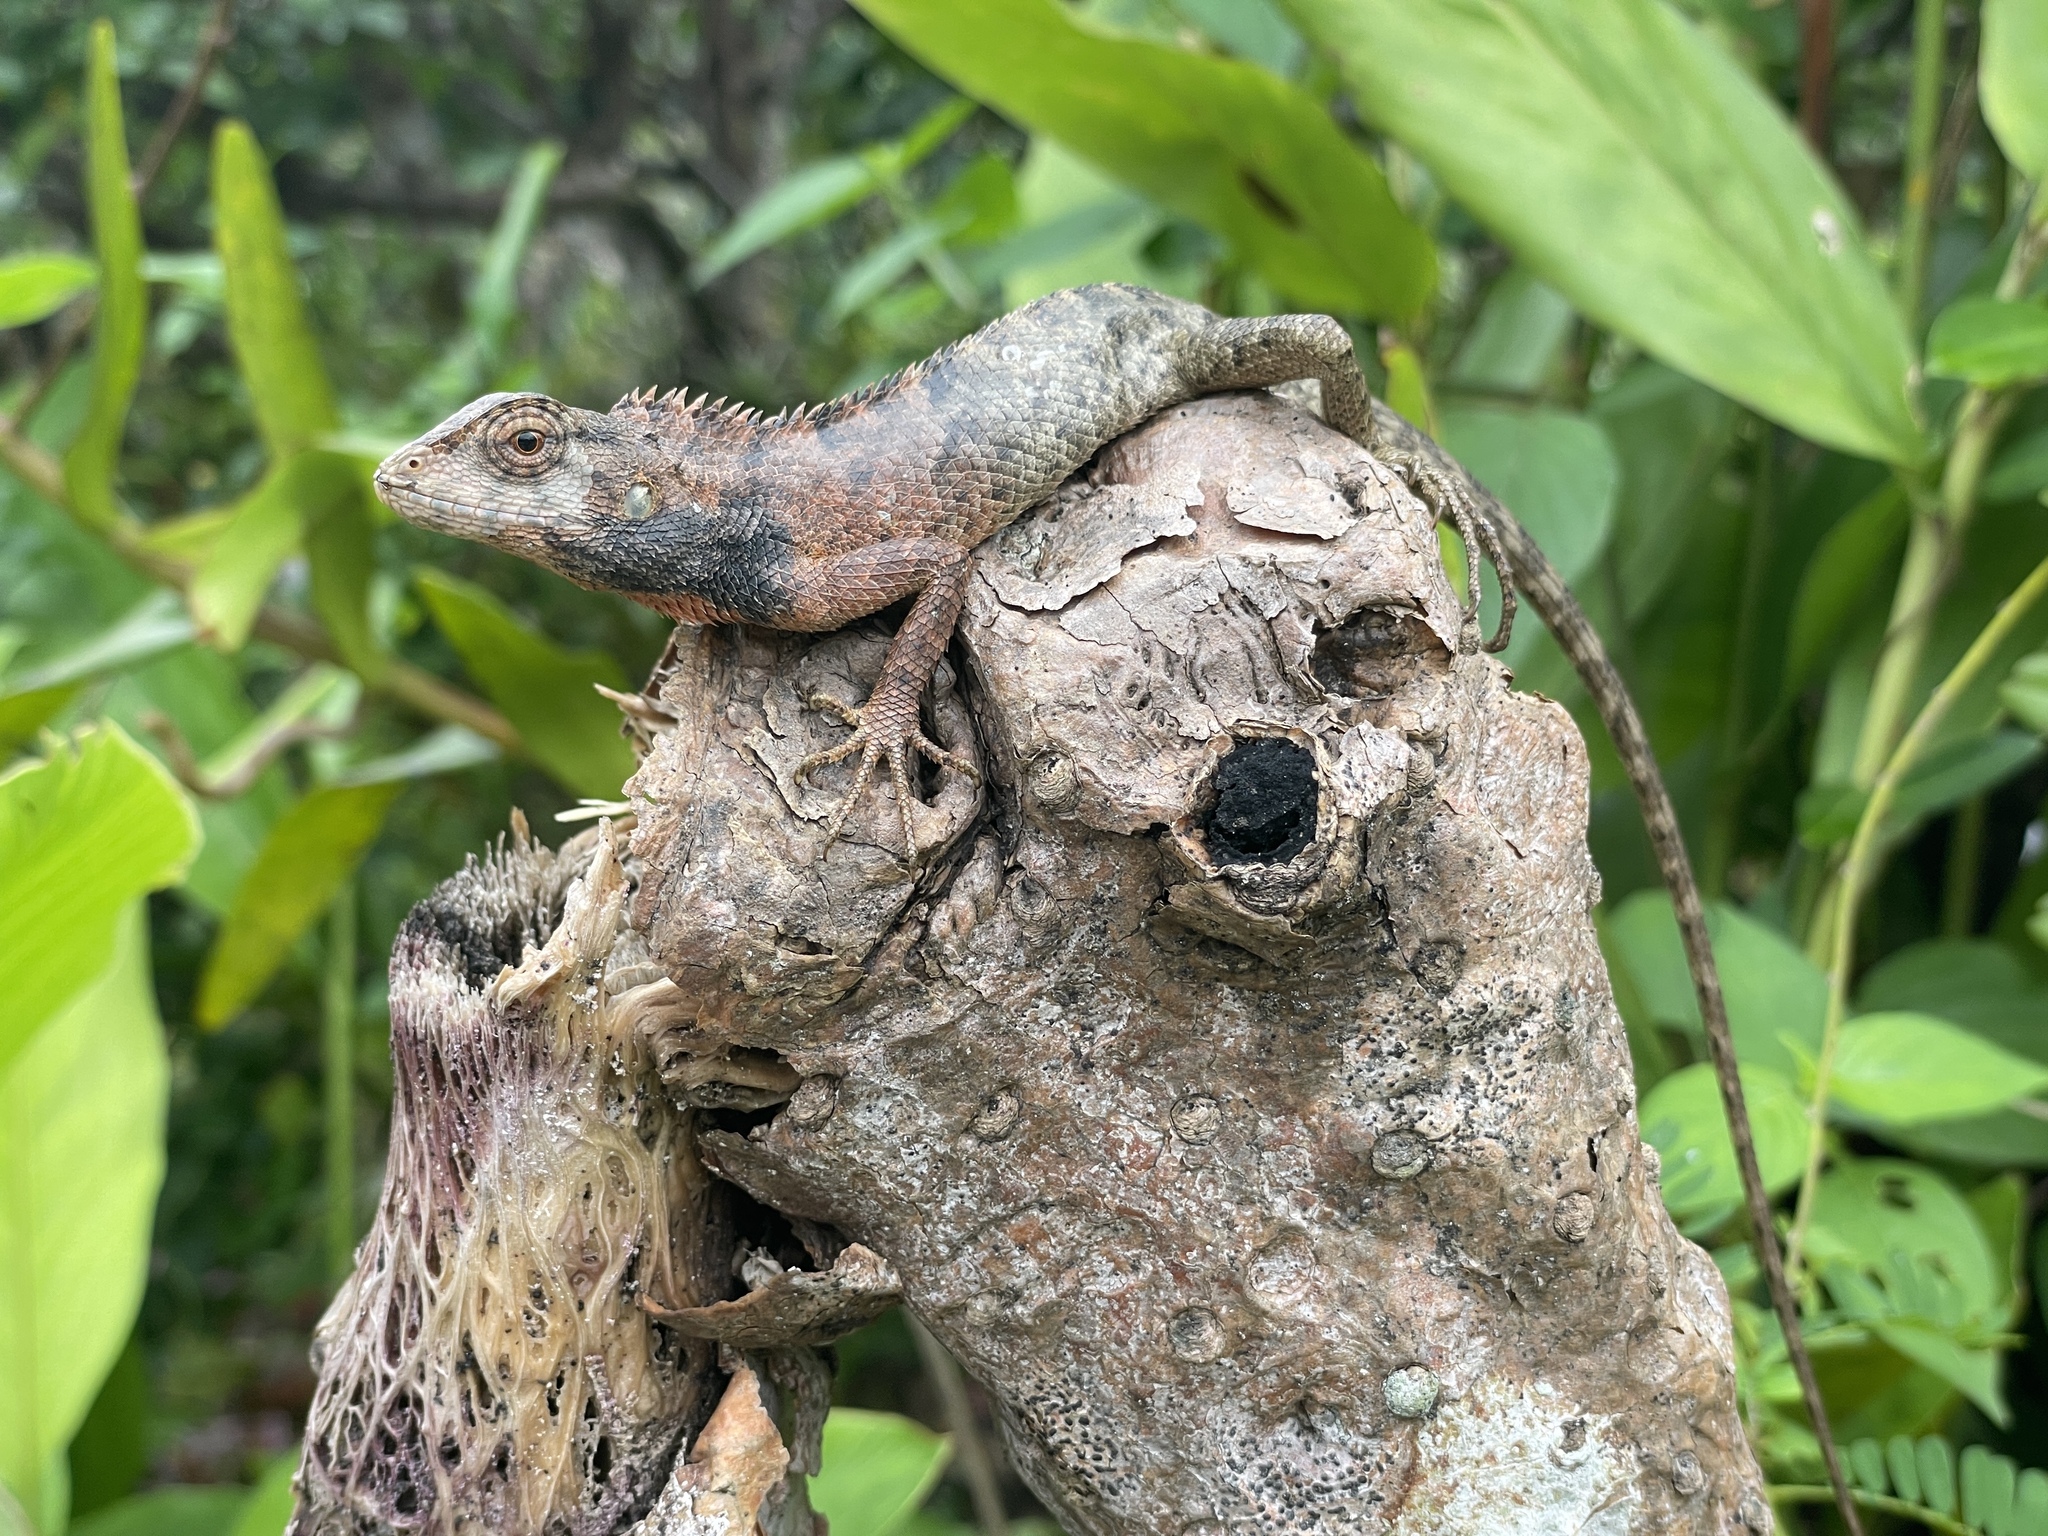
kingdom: Animalia
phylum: Chordata
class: Squamata
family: Agamidae
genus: Calotes
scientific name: Calotes versicolor
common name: Oriental garden lizard
